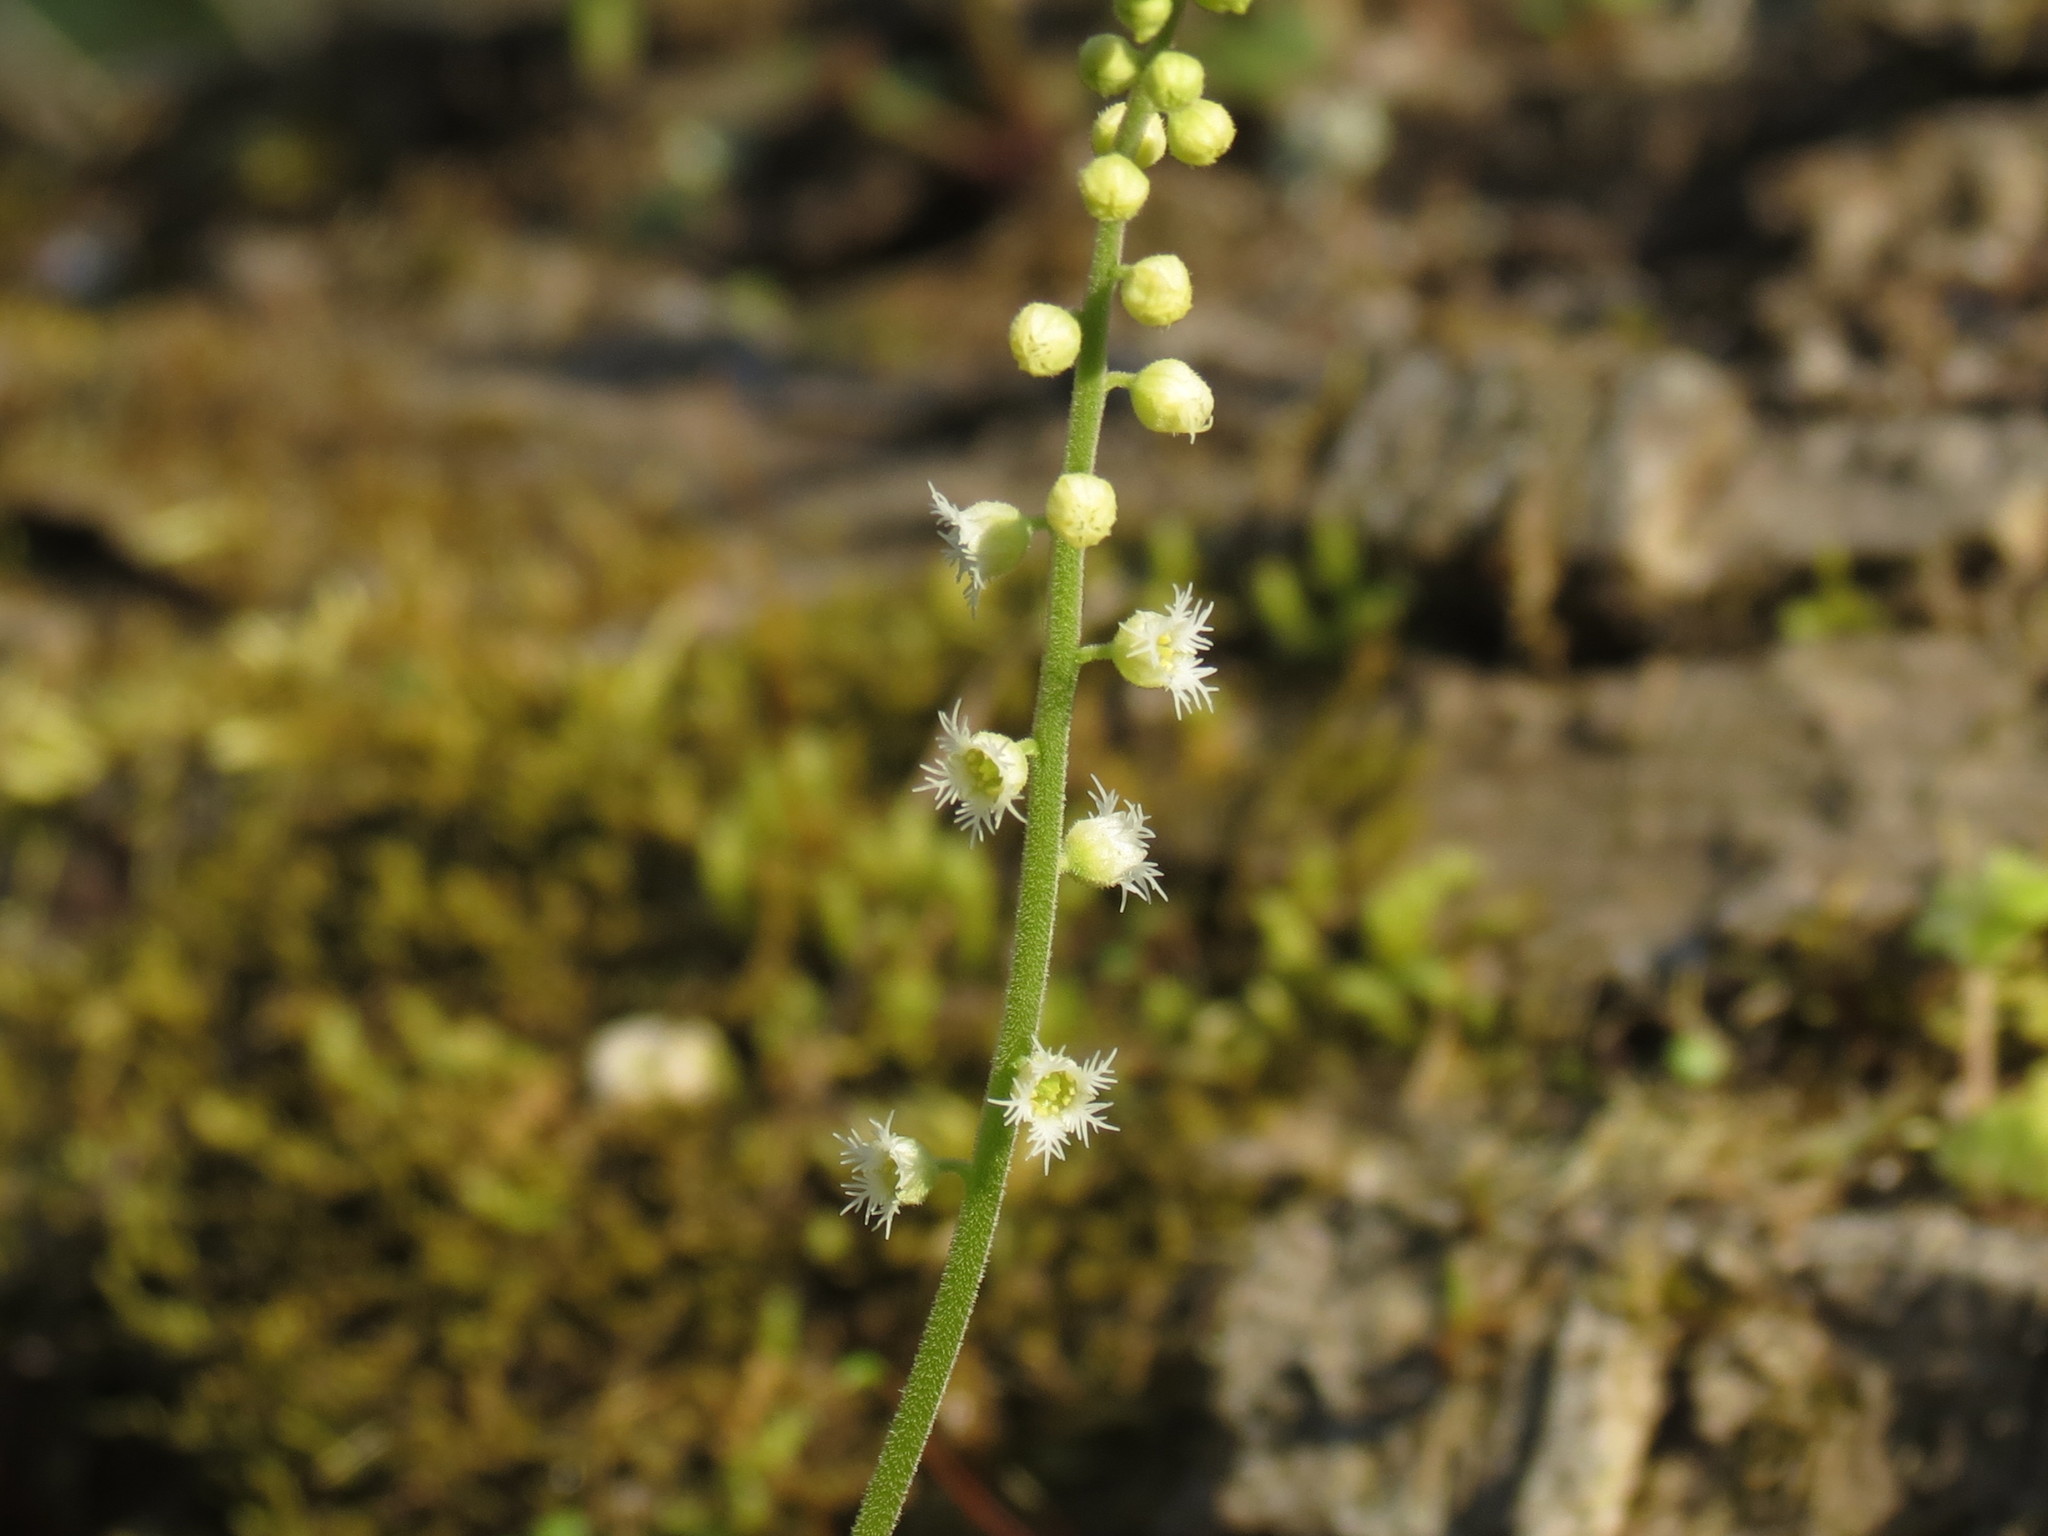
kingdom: Plantae
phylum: Tracheophyta
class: Magnoliopsida
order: Saxifragales
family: Saxifragaceae
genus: Mitella
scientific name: Mitella diphylla
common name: Coolwort
